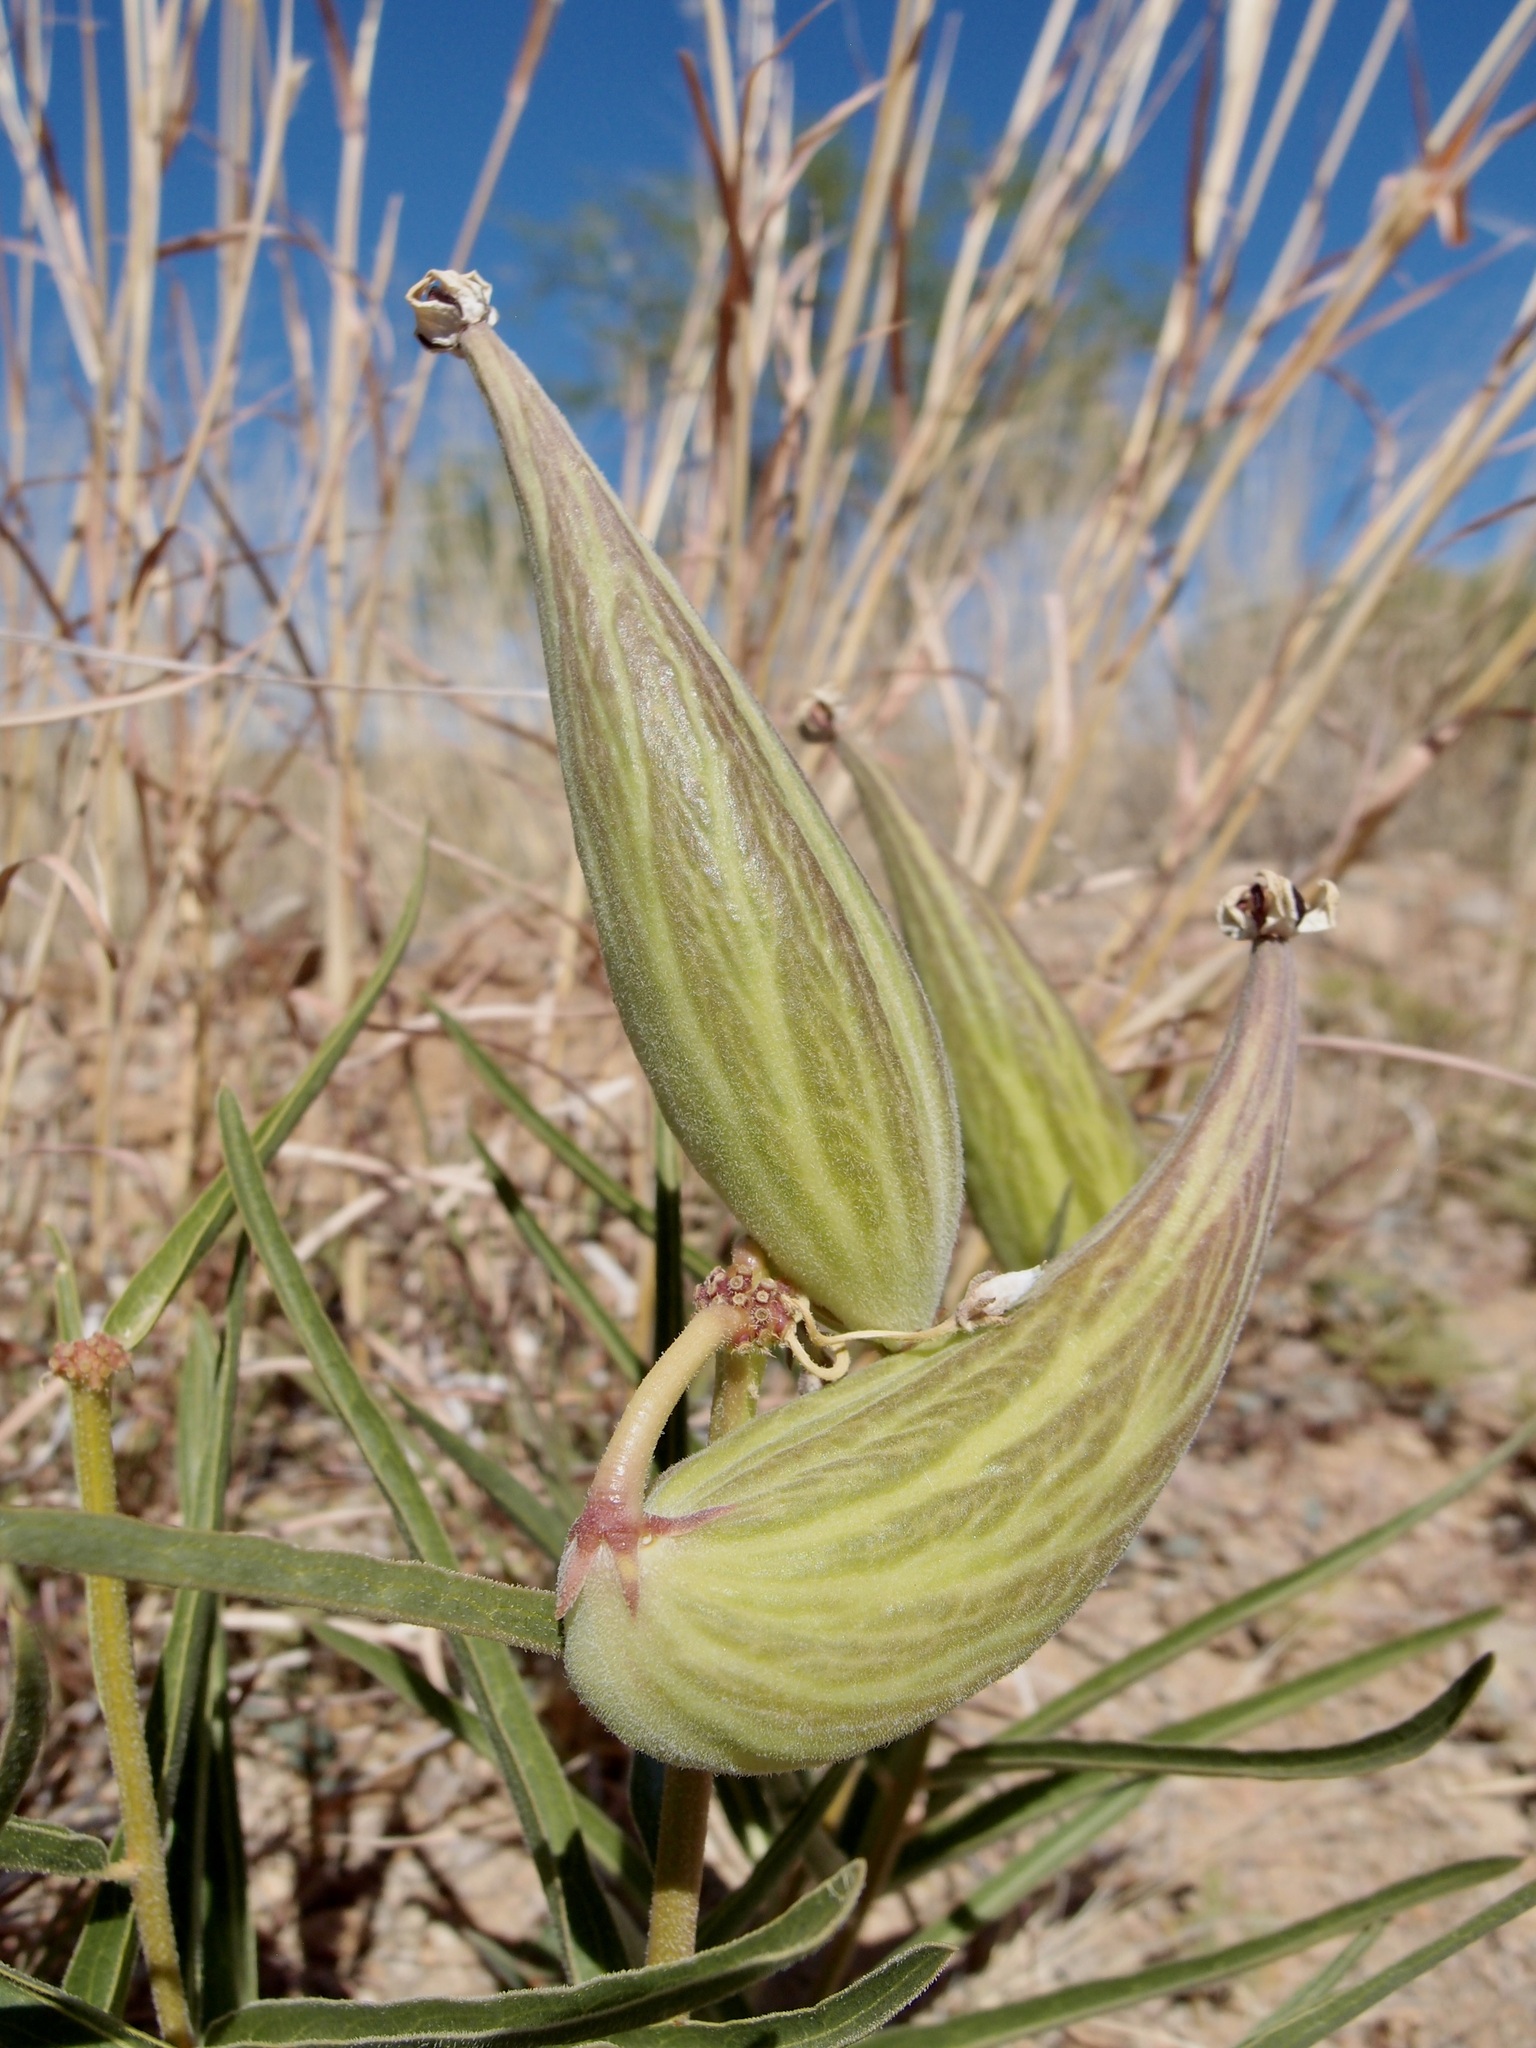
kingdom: Plantae
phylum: Tracheophyta
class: Magnoliopsida
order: Gentianales
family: Apocynaceae
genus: Asclepias
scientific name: Asclepias asperula
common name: Antelope horns
